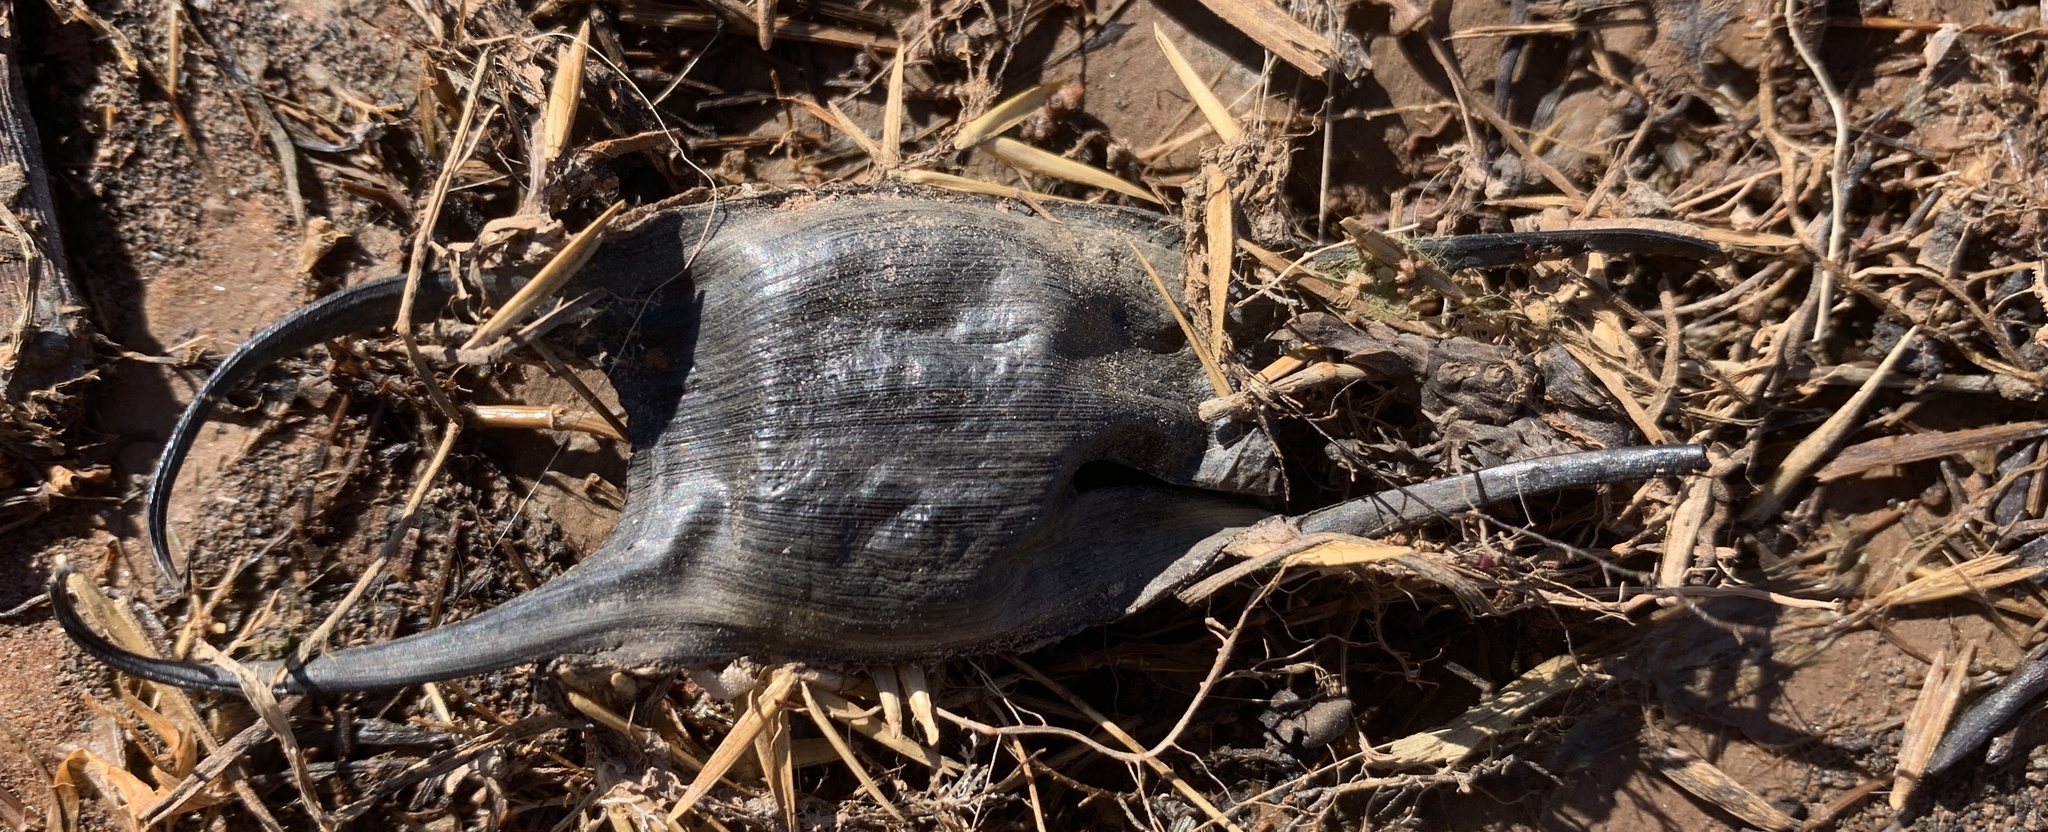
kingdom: Animalia
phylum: Chordata
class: Elasmobranchii
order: Rajiformes
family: Rajidae
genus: Leucoraja
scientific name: Leucoraja erinacea
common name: Little skate
